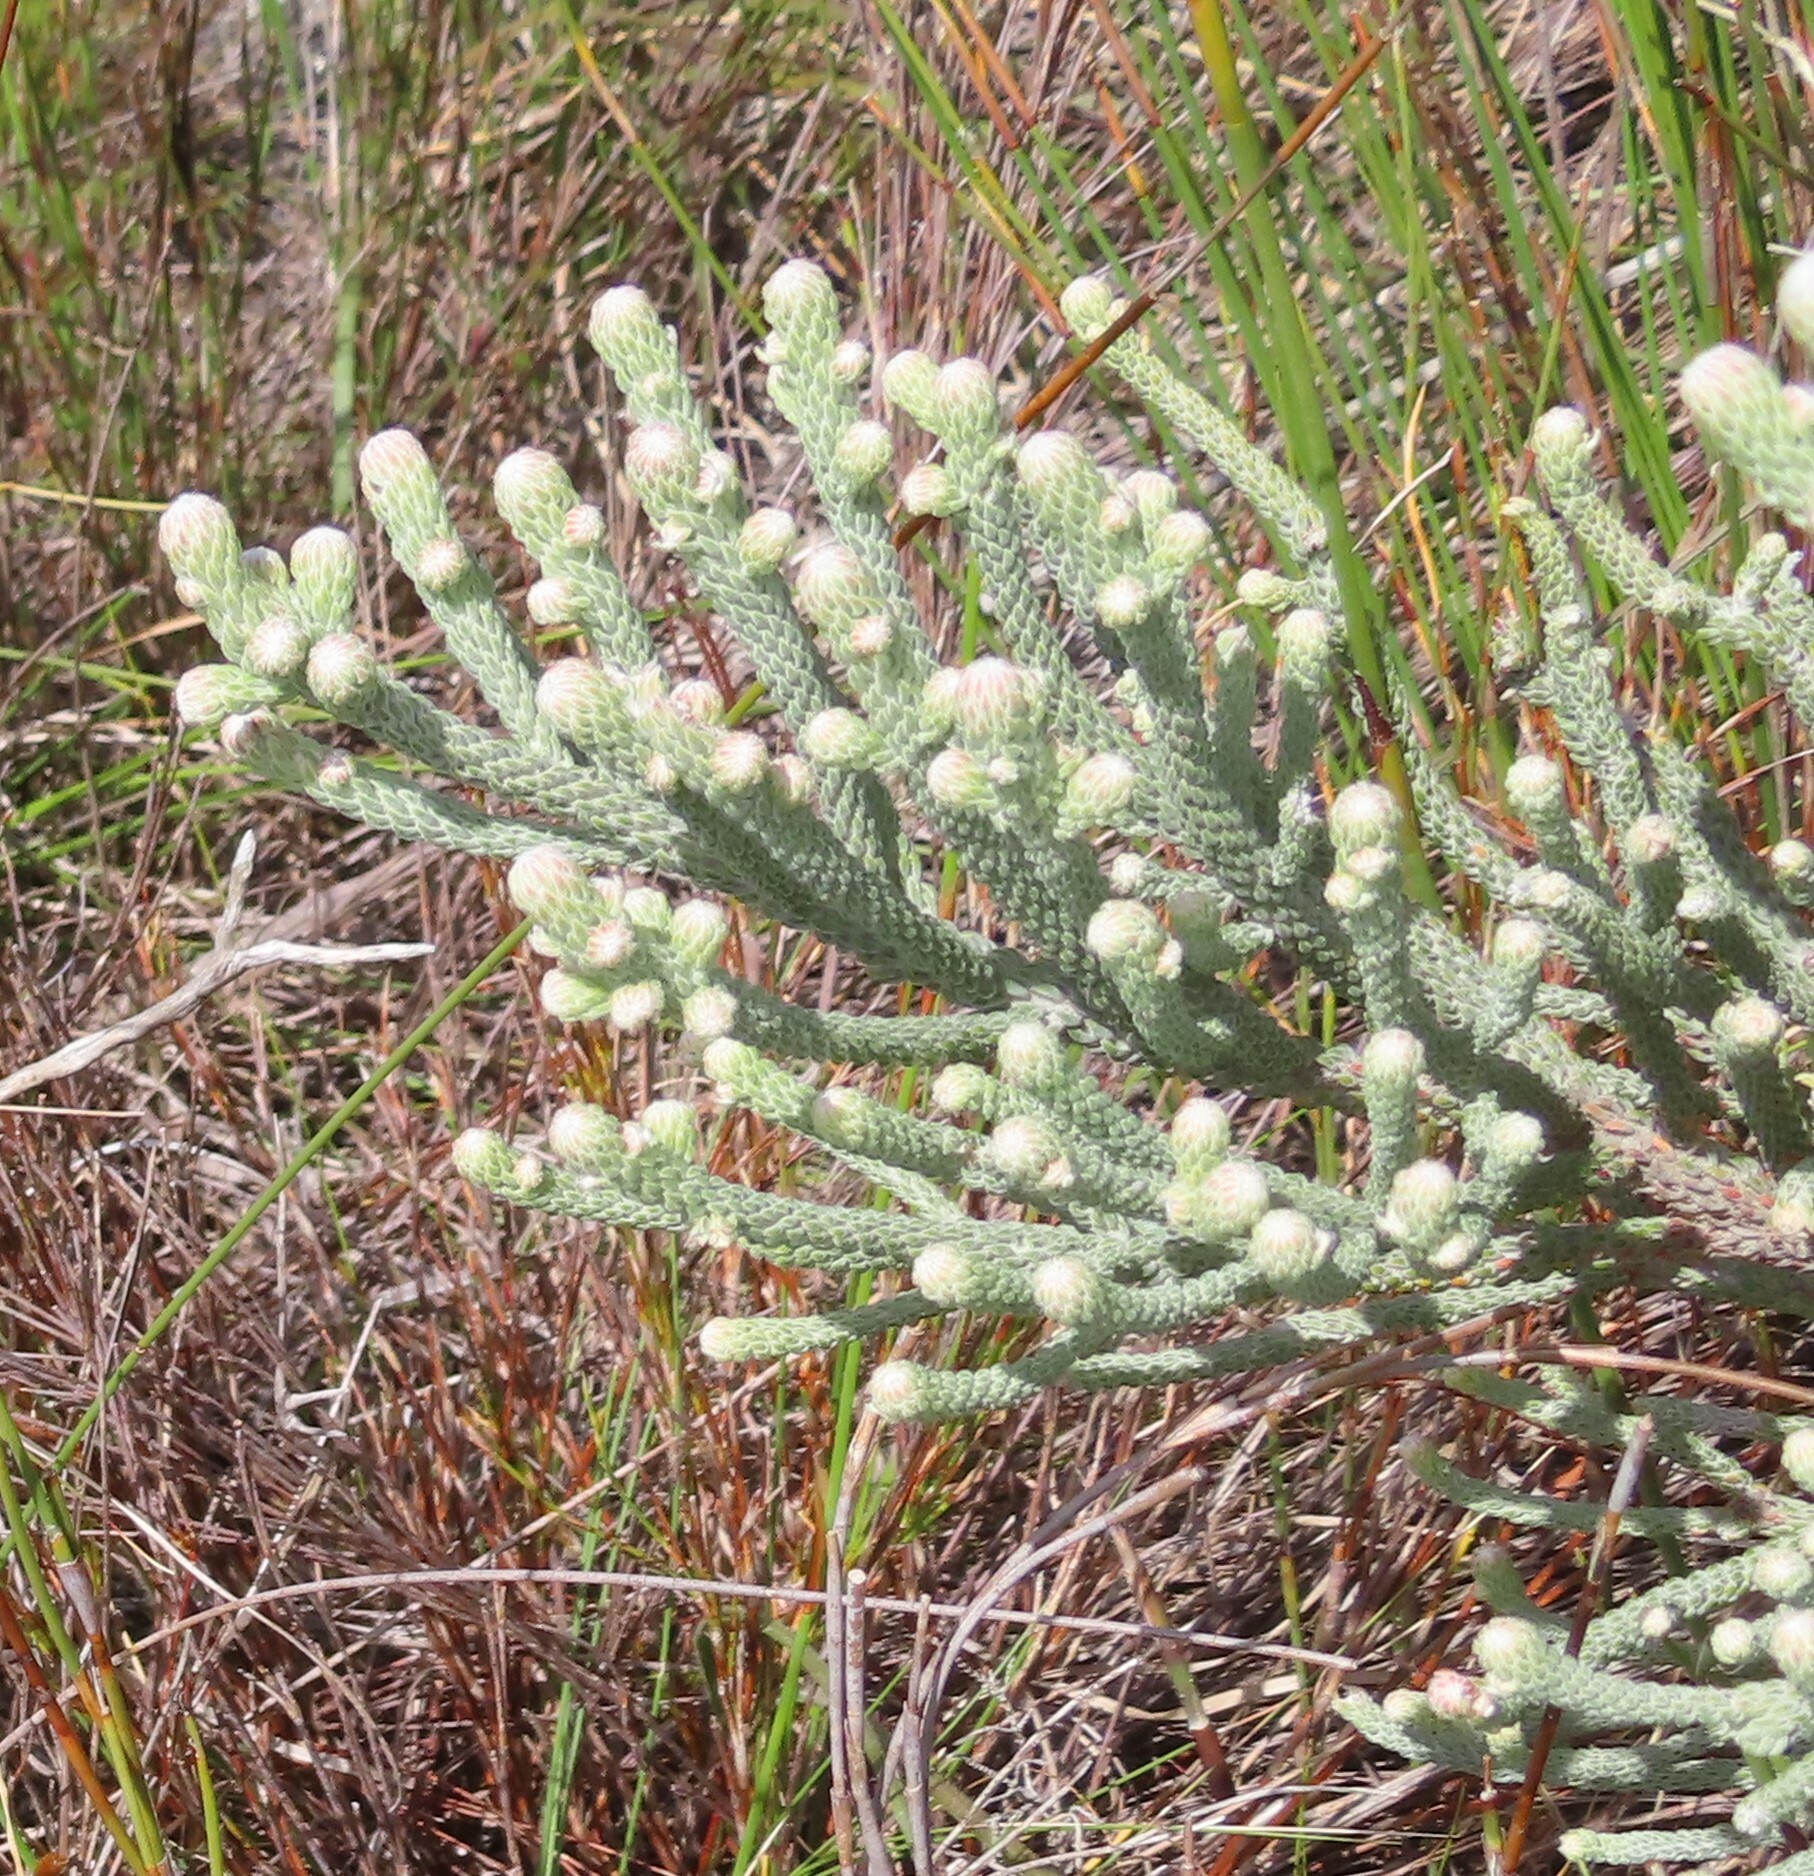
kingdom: Plantae
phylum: Tracheophyta
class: Magnoliopsida
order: Bruniales
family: Bruniaceae
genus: Brunia
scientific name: Brunia laevis
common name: Silver brunia
